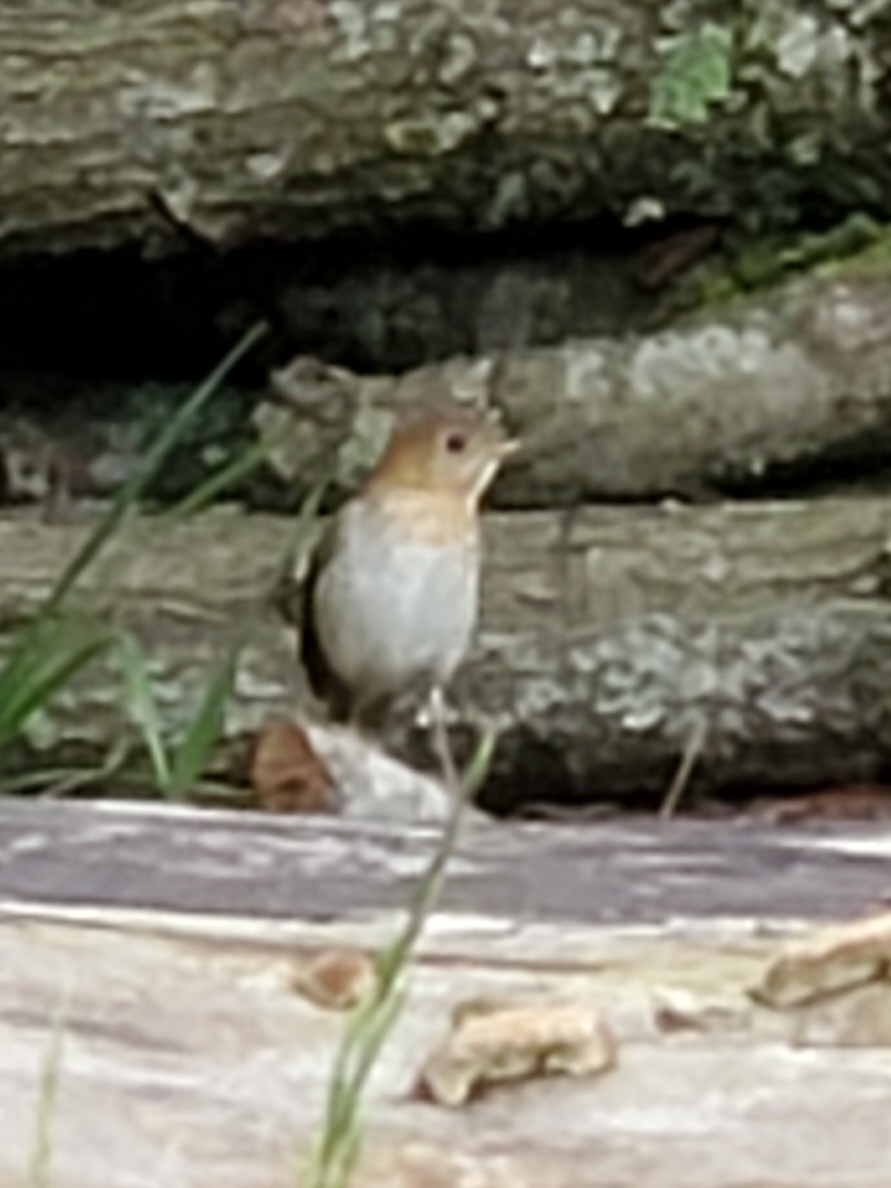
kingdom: Animalia
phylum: Chordata
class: Aves
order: Passeriformes
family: Turdidae
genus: Catharus
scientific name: Catharus ustulatus
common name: Swainson's thrush
